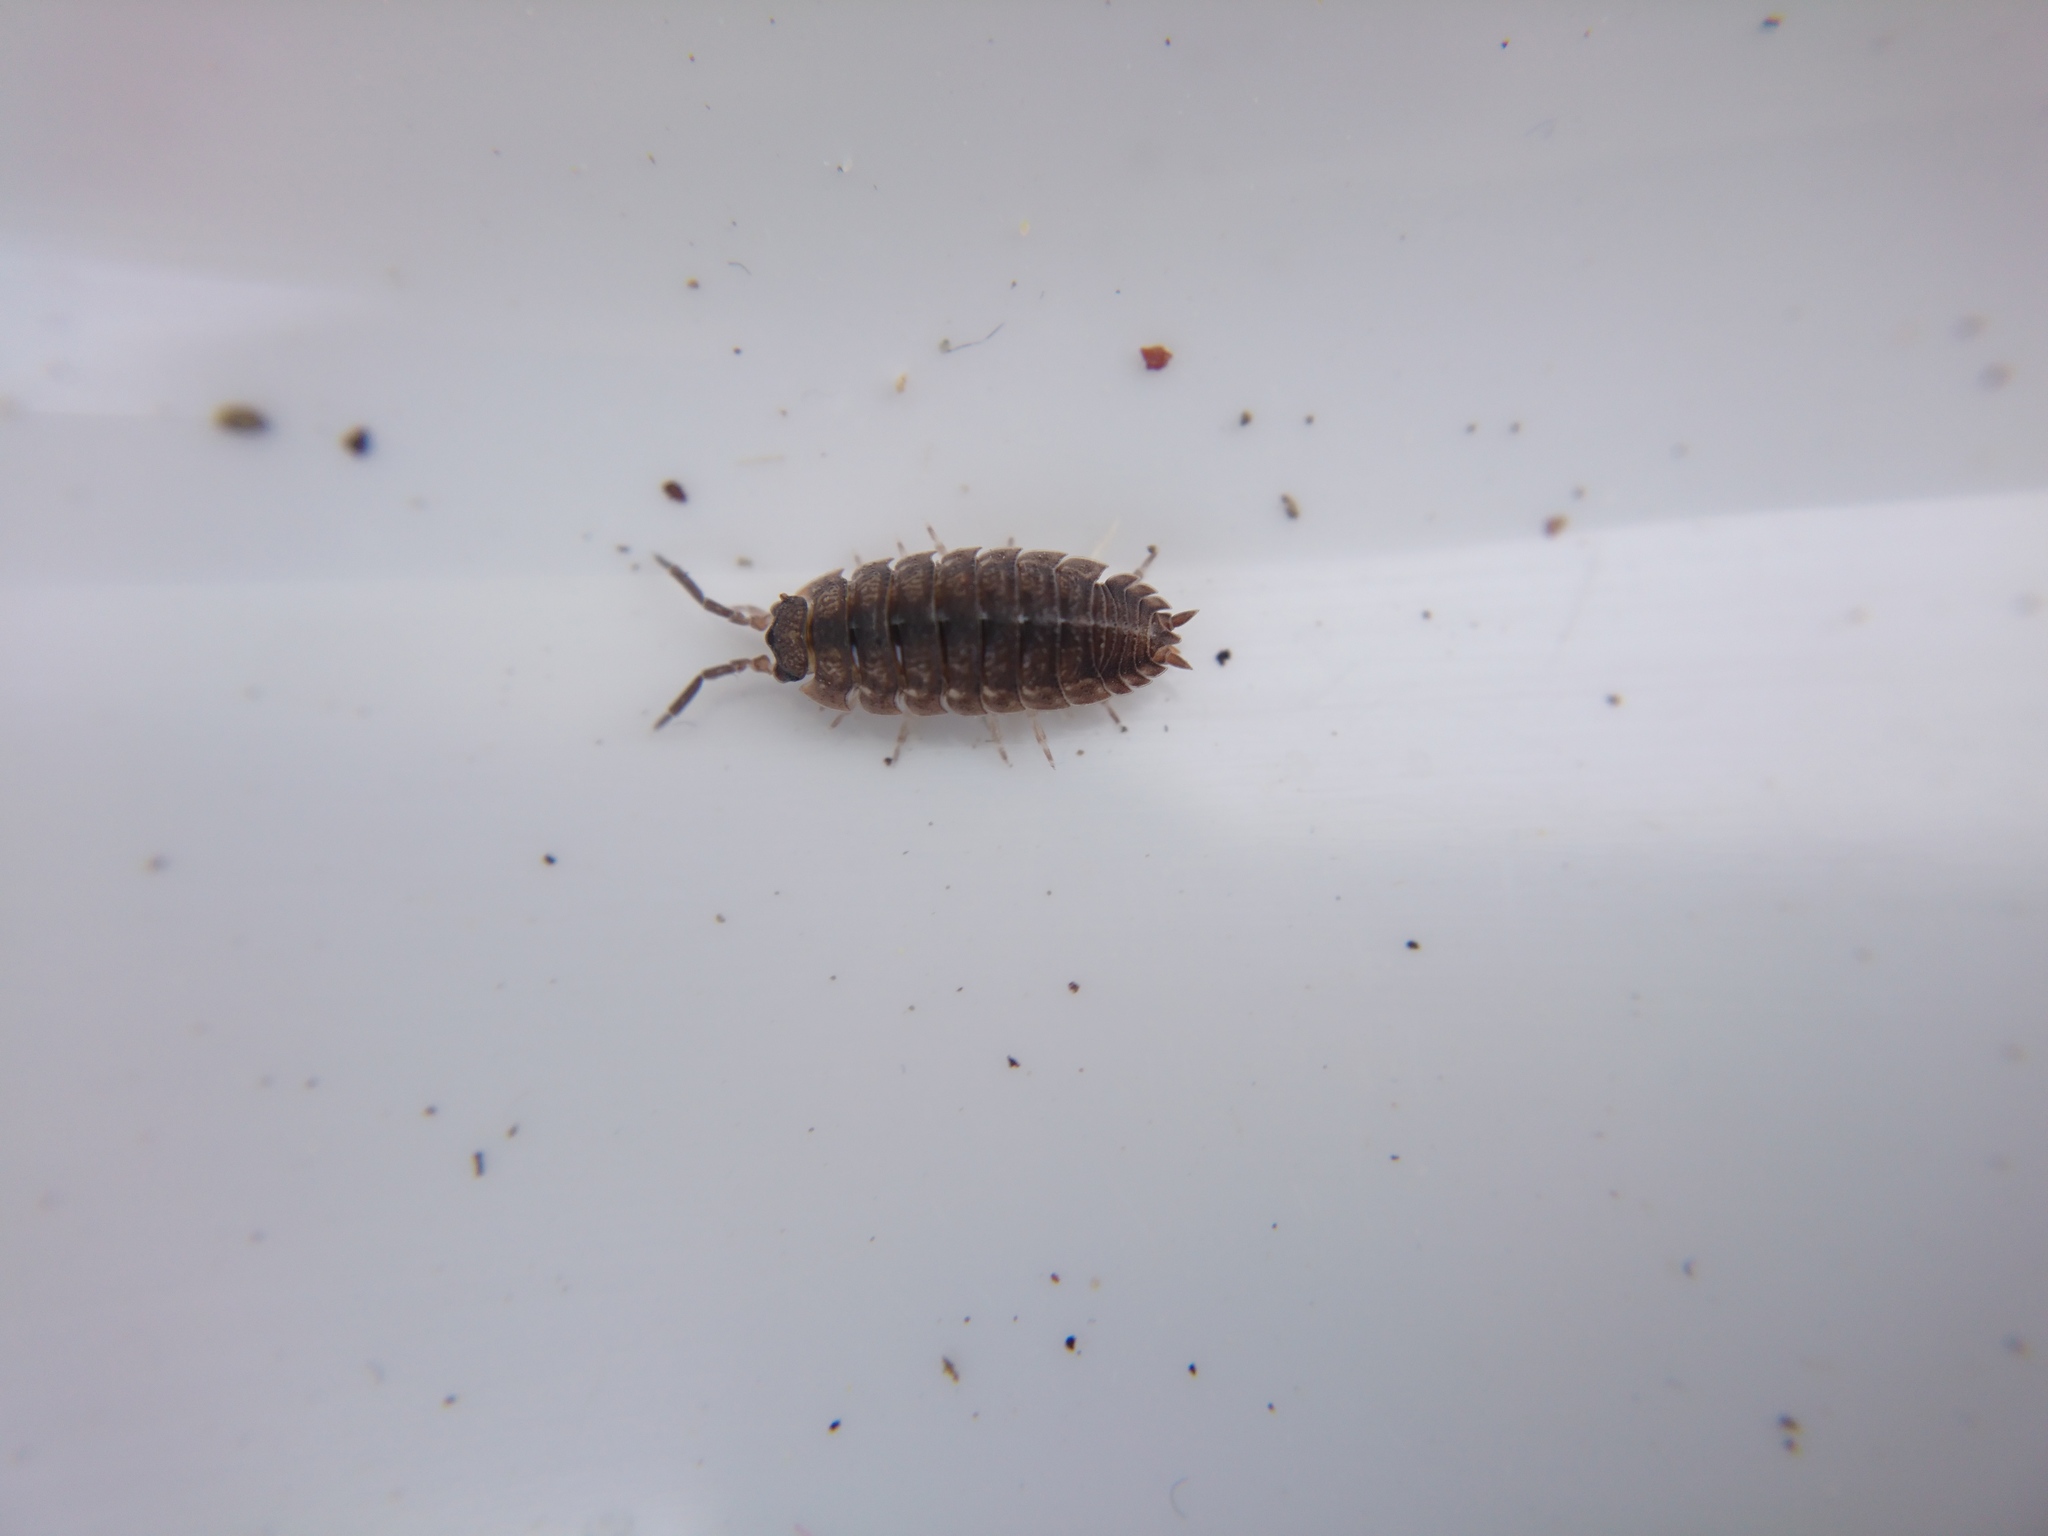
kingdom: Animalia
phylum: Arthropoda
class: Malacostraca
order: Isopoda
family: Porcellionidae
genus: Porcellio
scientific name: Porcellio scaber
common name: Common rough woodlouse
